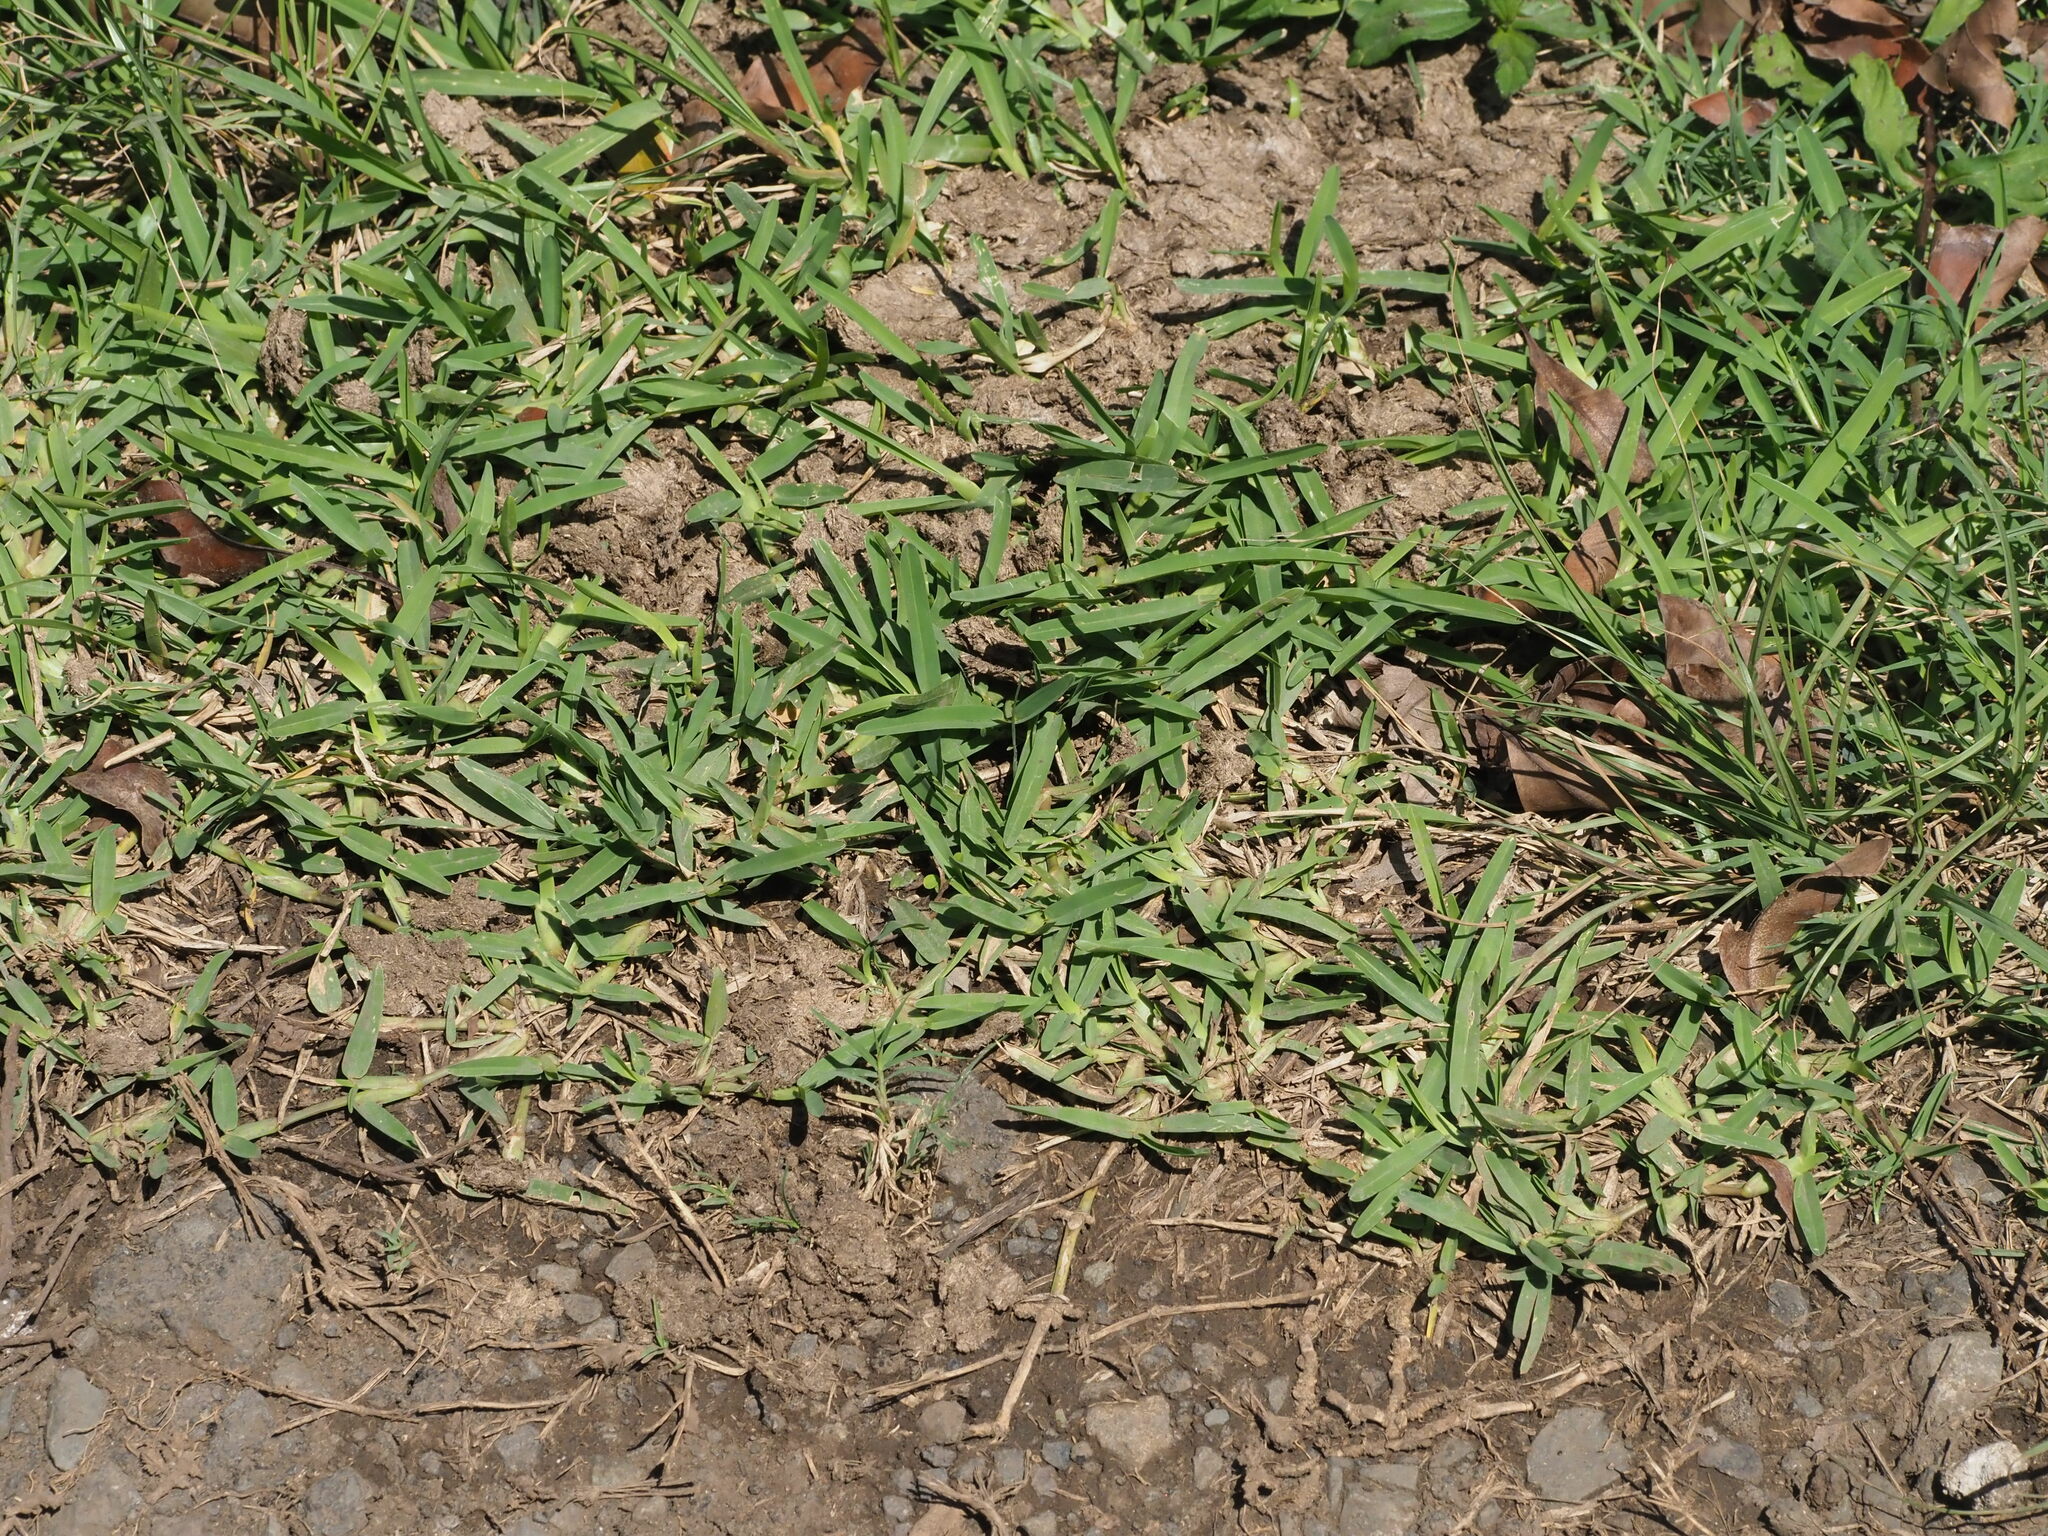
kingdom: Plantae
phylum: Tracheophyta
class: Liliopsida
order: Poales
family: Poaceae
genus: Stenotaphrum
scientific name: Stenotaphrum secundatum
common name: St. augustine grass
